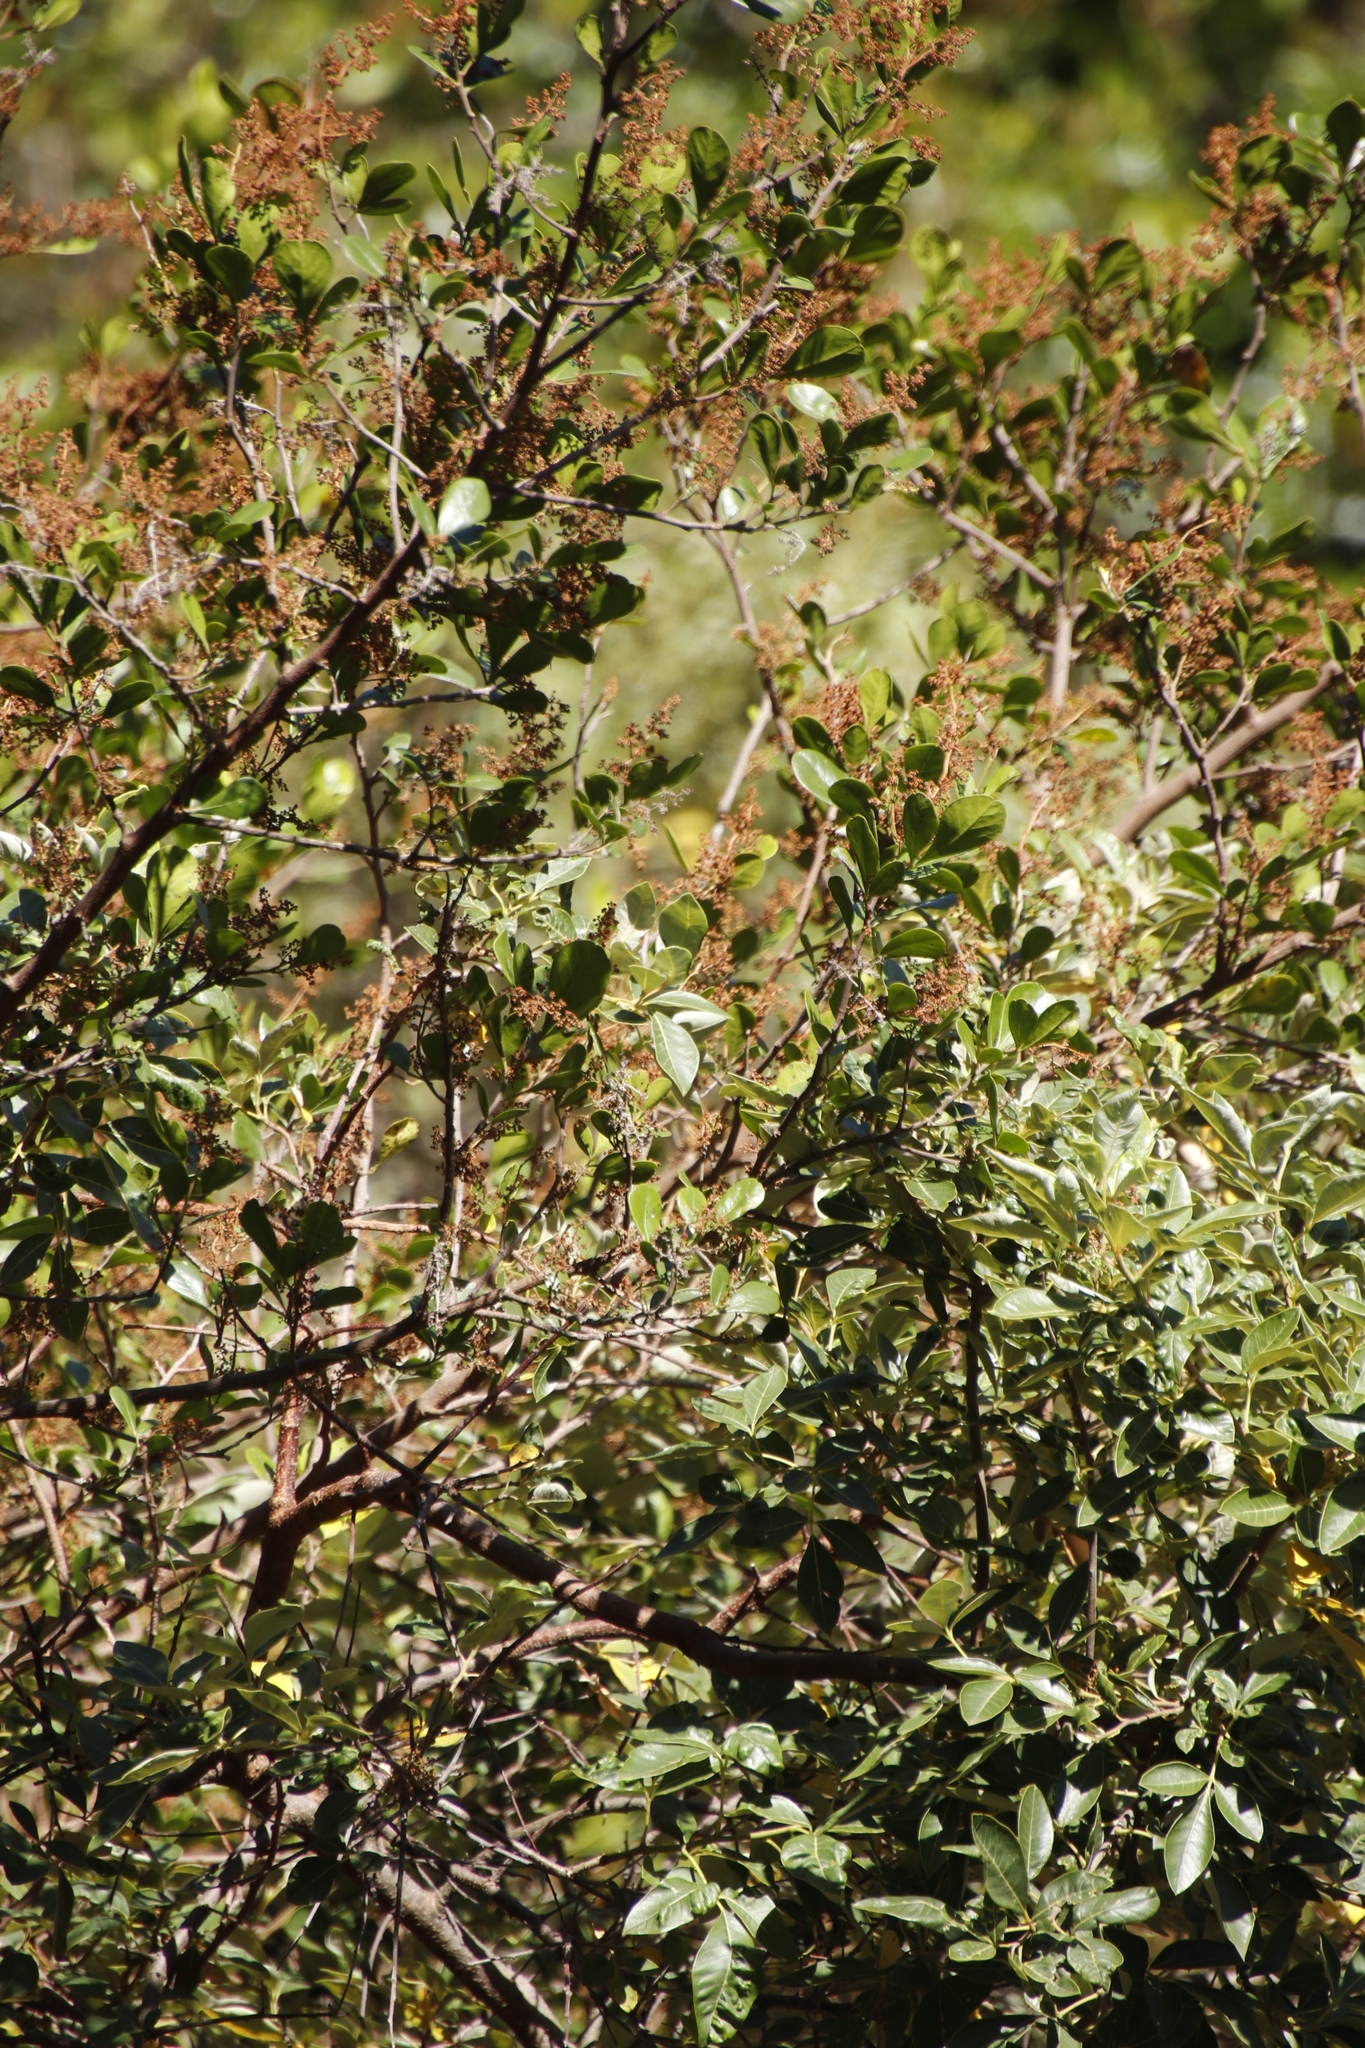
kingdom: Plantae
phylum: Tracheophyta
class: Magnoliopsida
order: Sapindales
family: Anacardiaceae
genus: Searsia
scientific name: Searsia lucida
